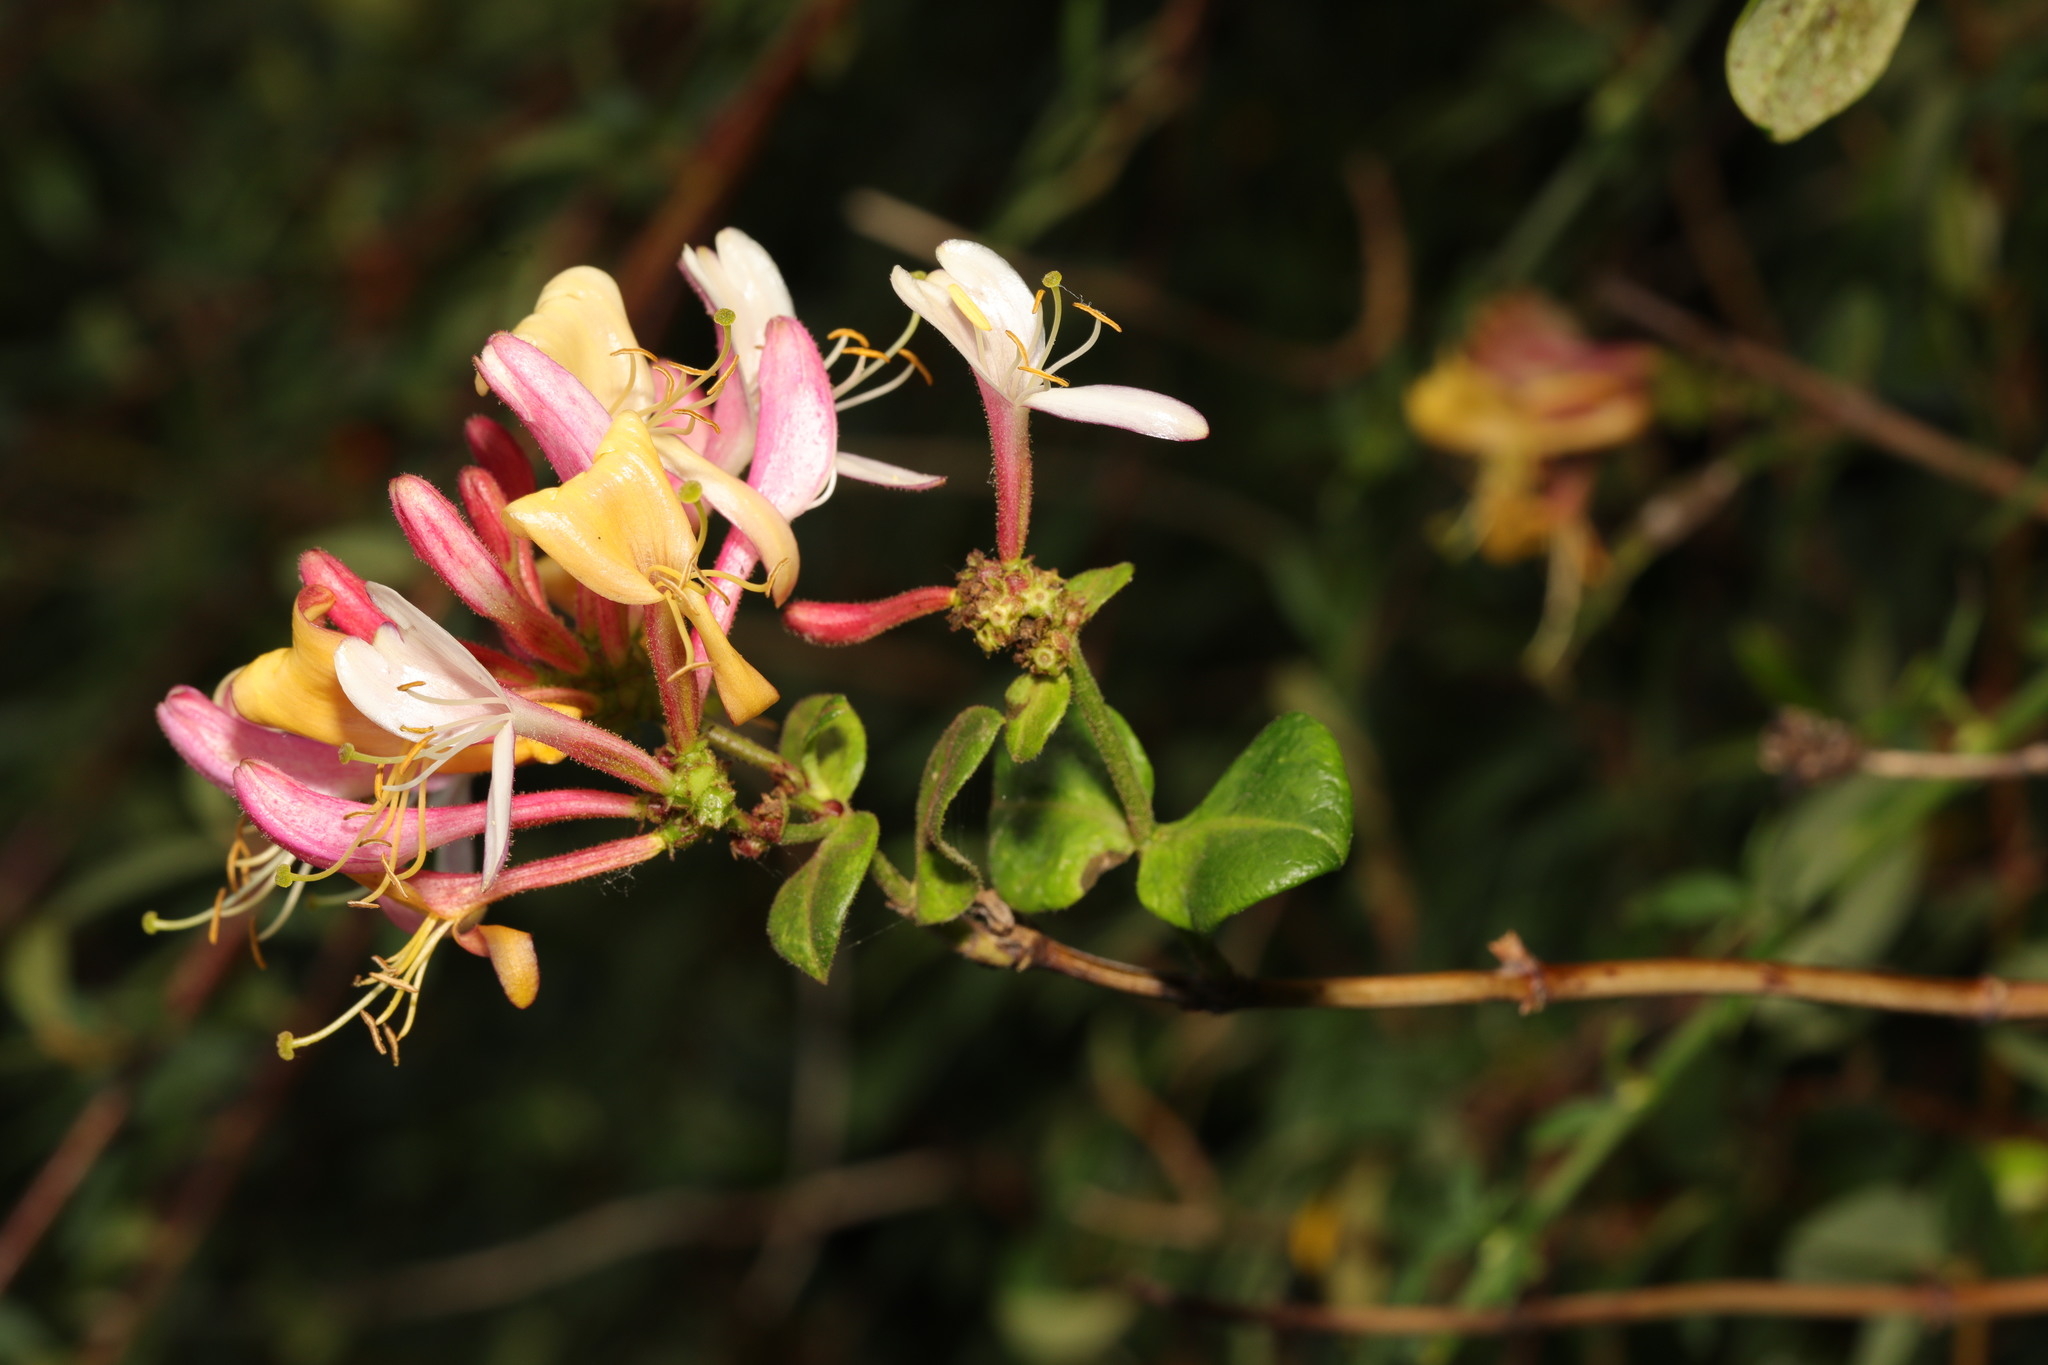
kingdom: Plantae
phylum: Tracheophyta
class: Magnoliopsida
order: Dipsacales
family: Caprifoliaceae
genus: Lonicera
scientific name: Lonicera periclymenum
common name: European honeysuckle
